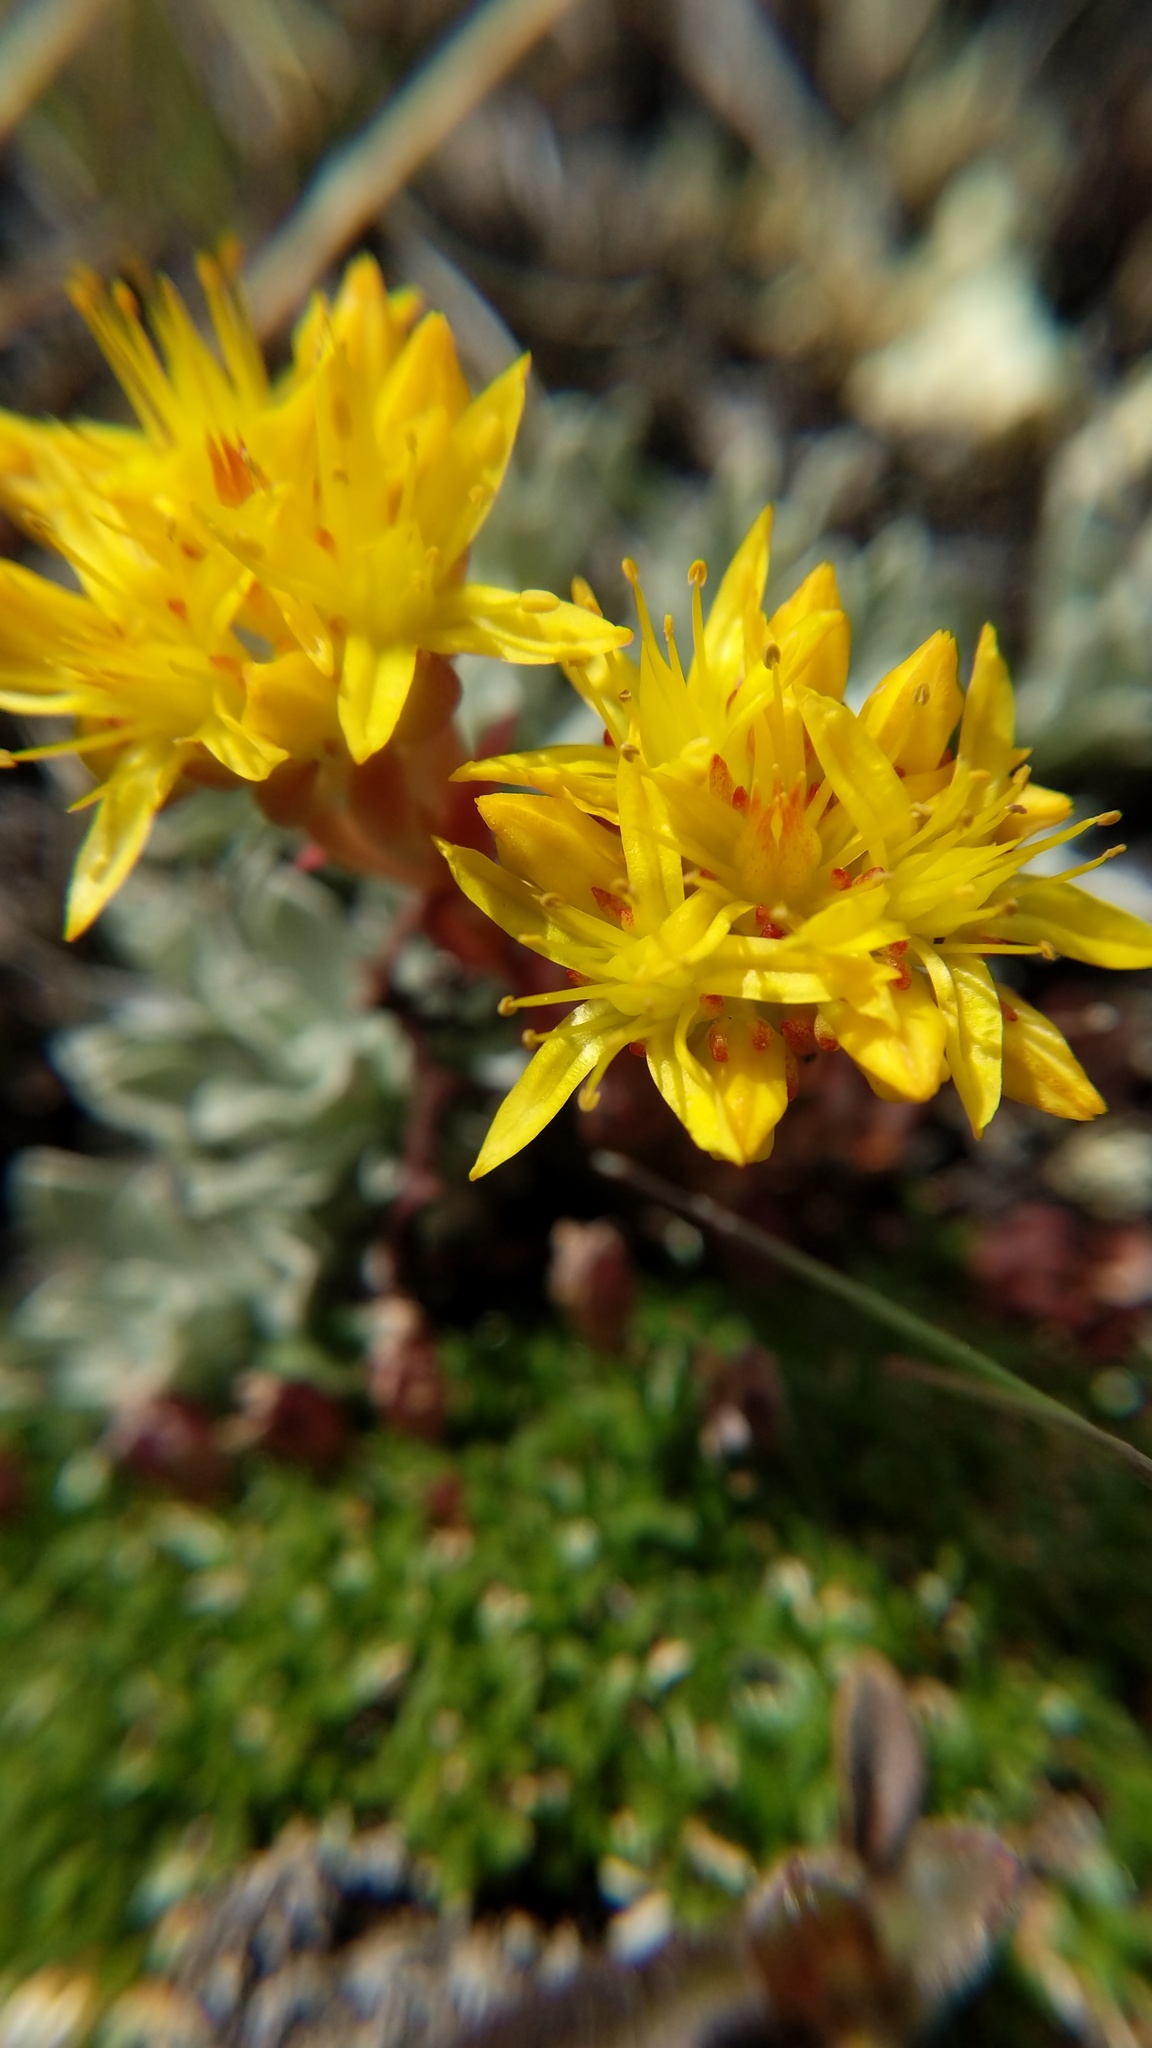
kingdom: Plantae
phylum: Tracheophyta
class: Magnoliopsida
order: Saxifragales
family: Crassulaceae
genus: Sedum
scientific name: Sedum lanceolatum
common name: Common stonecrop
